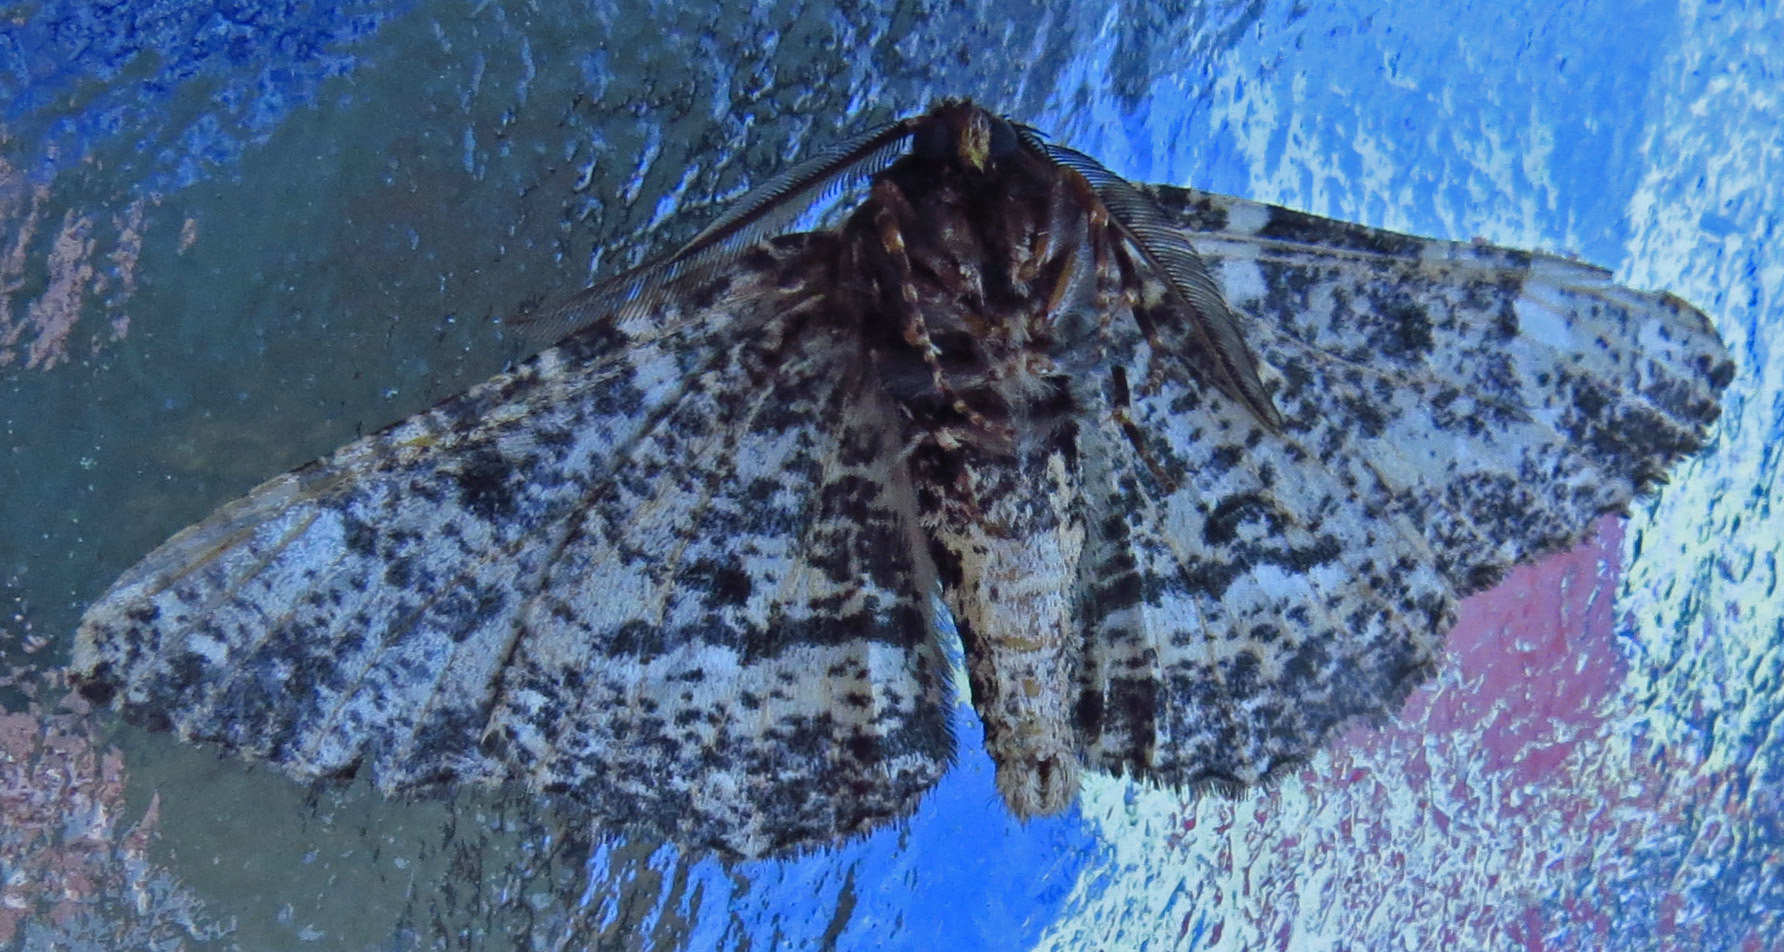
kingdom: Animalia
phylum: Arthropoda
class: Insecta
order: Lepidoptera
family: Geometridae
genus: Phaeoura
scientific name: Phaeoura quernaria
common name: Oak beauty
